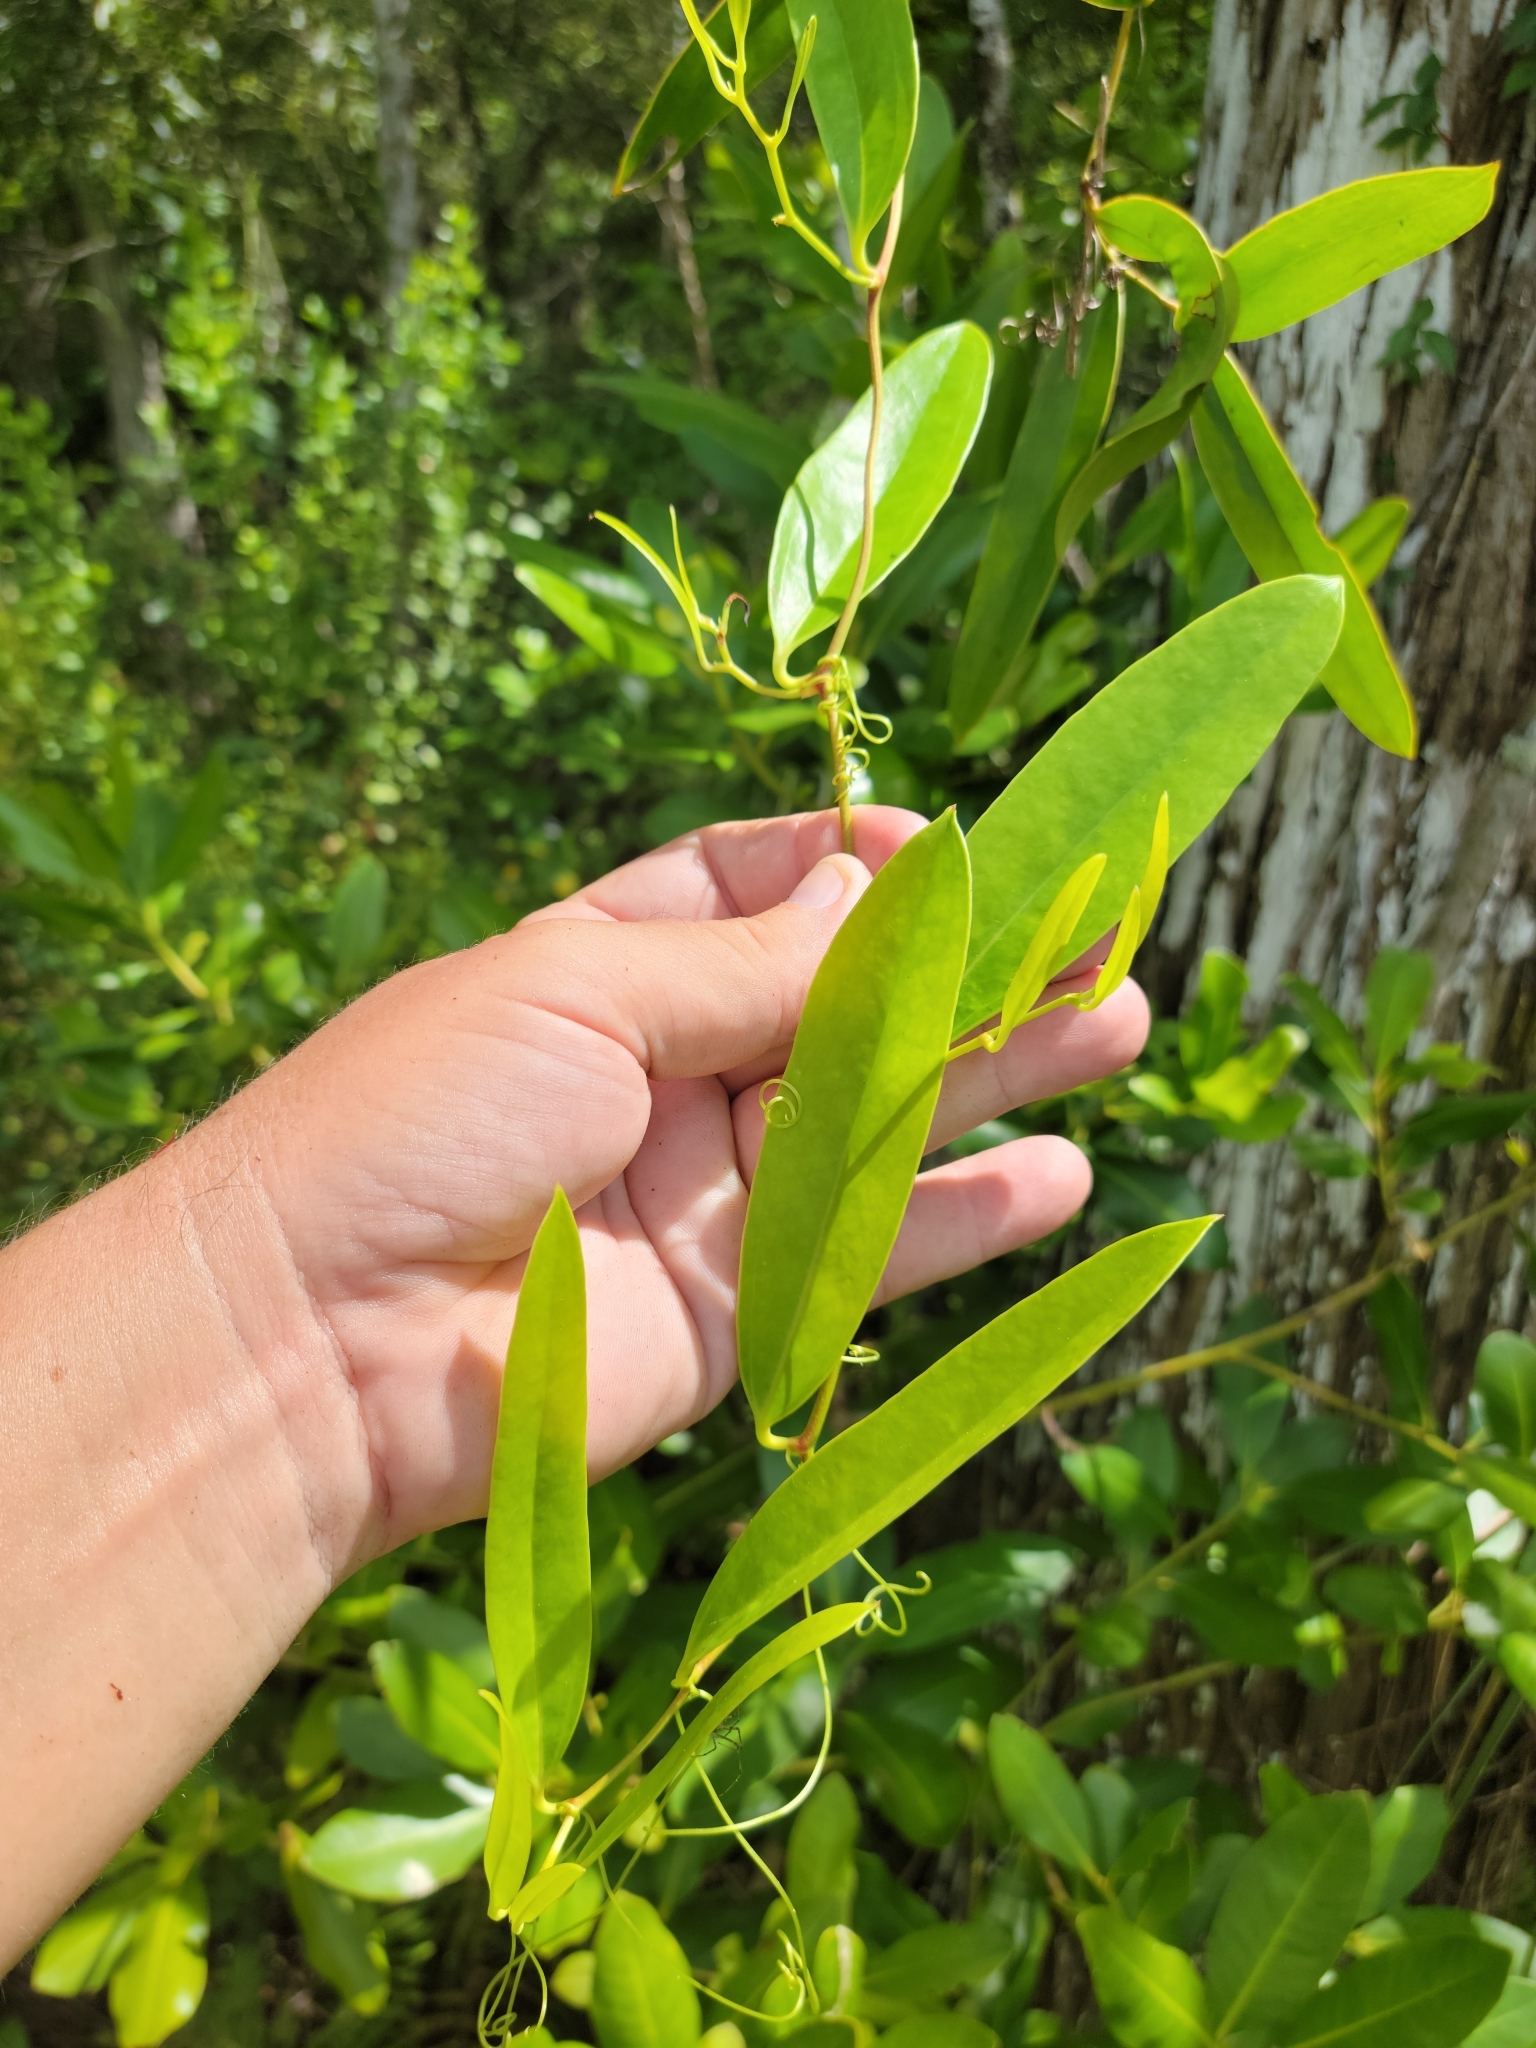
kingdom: Plantae
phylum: Tracheophyta
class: Liliopsida
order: Liliales
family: Smilacaceae
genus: Smilax
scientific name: Smilax laurifolia
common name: Bamboovine
